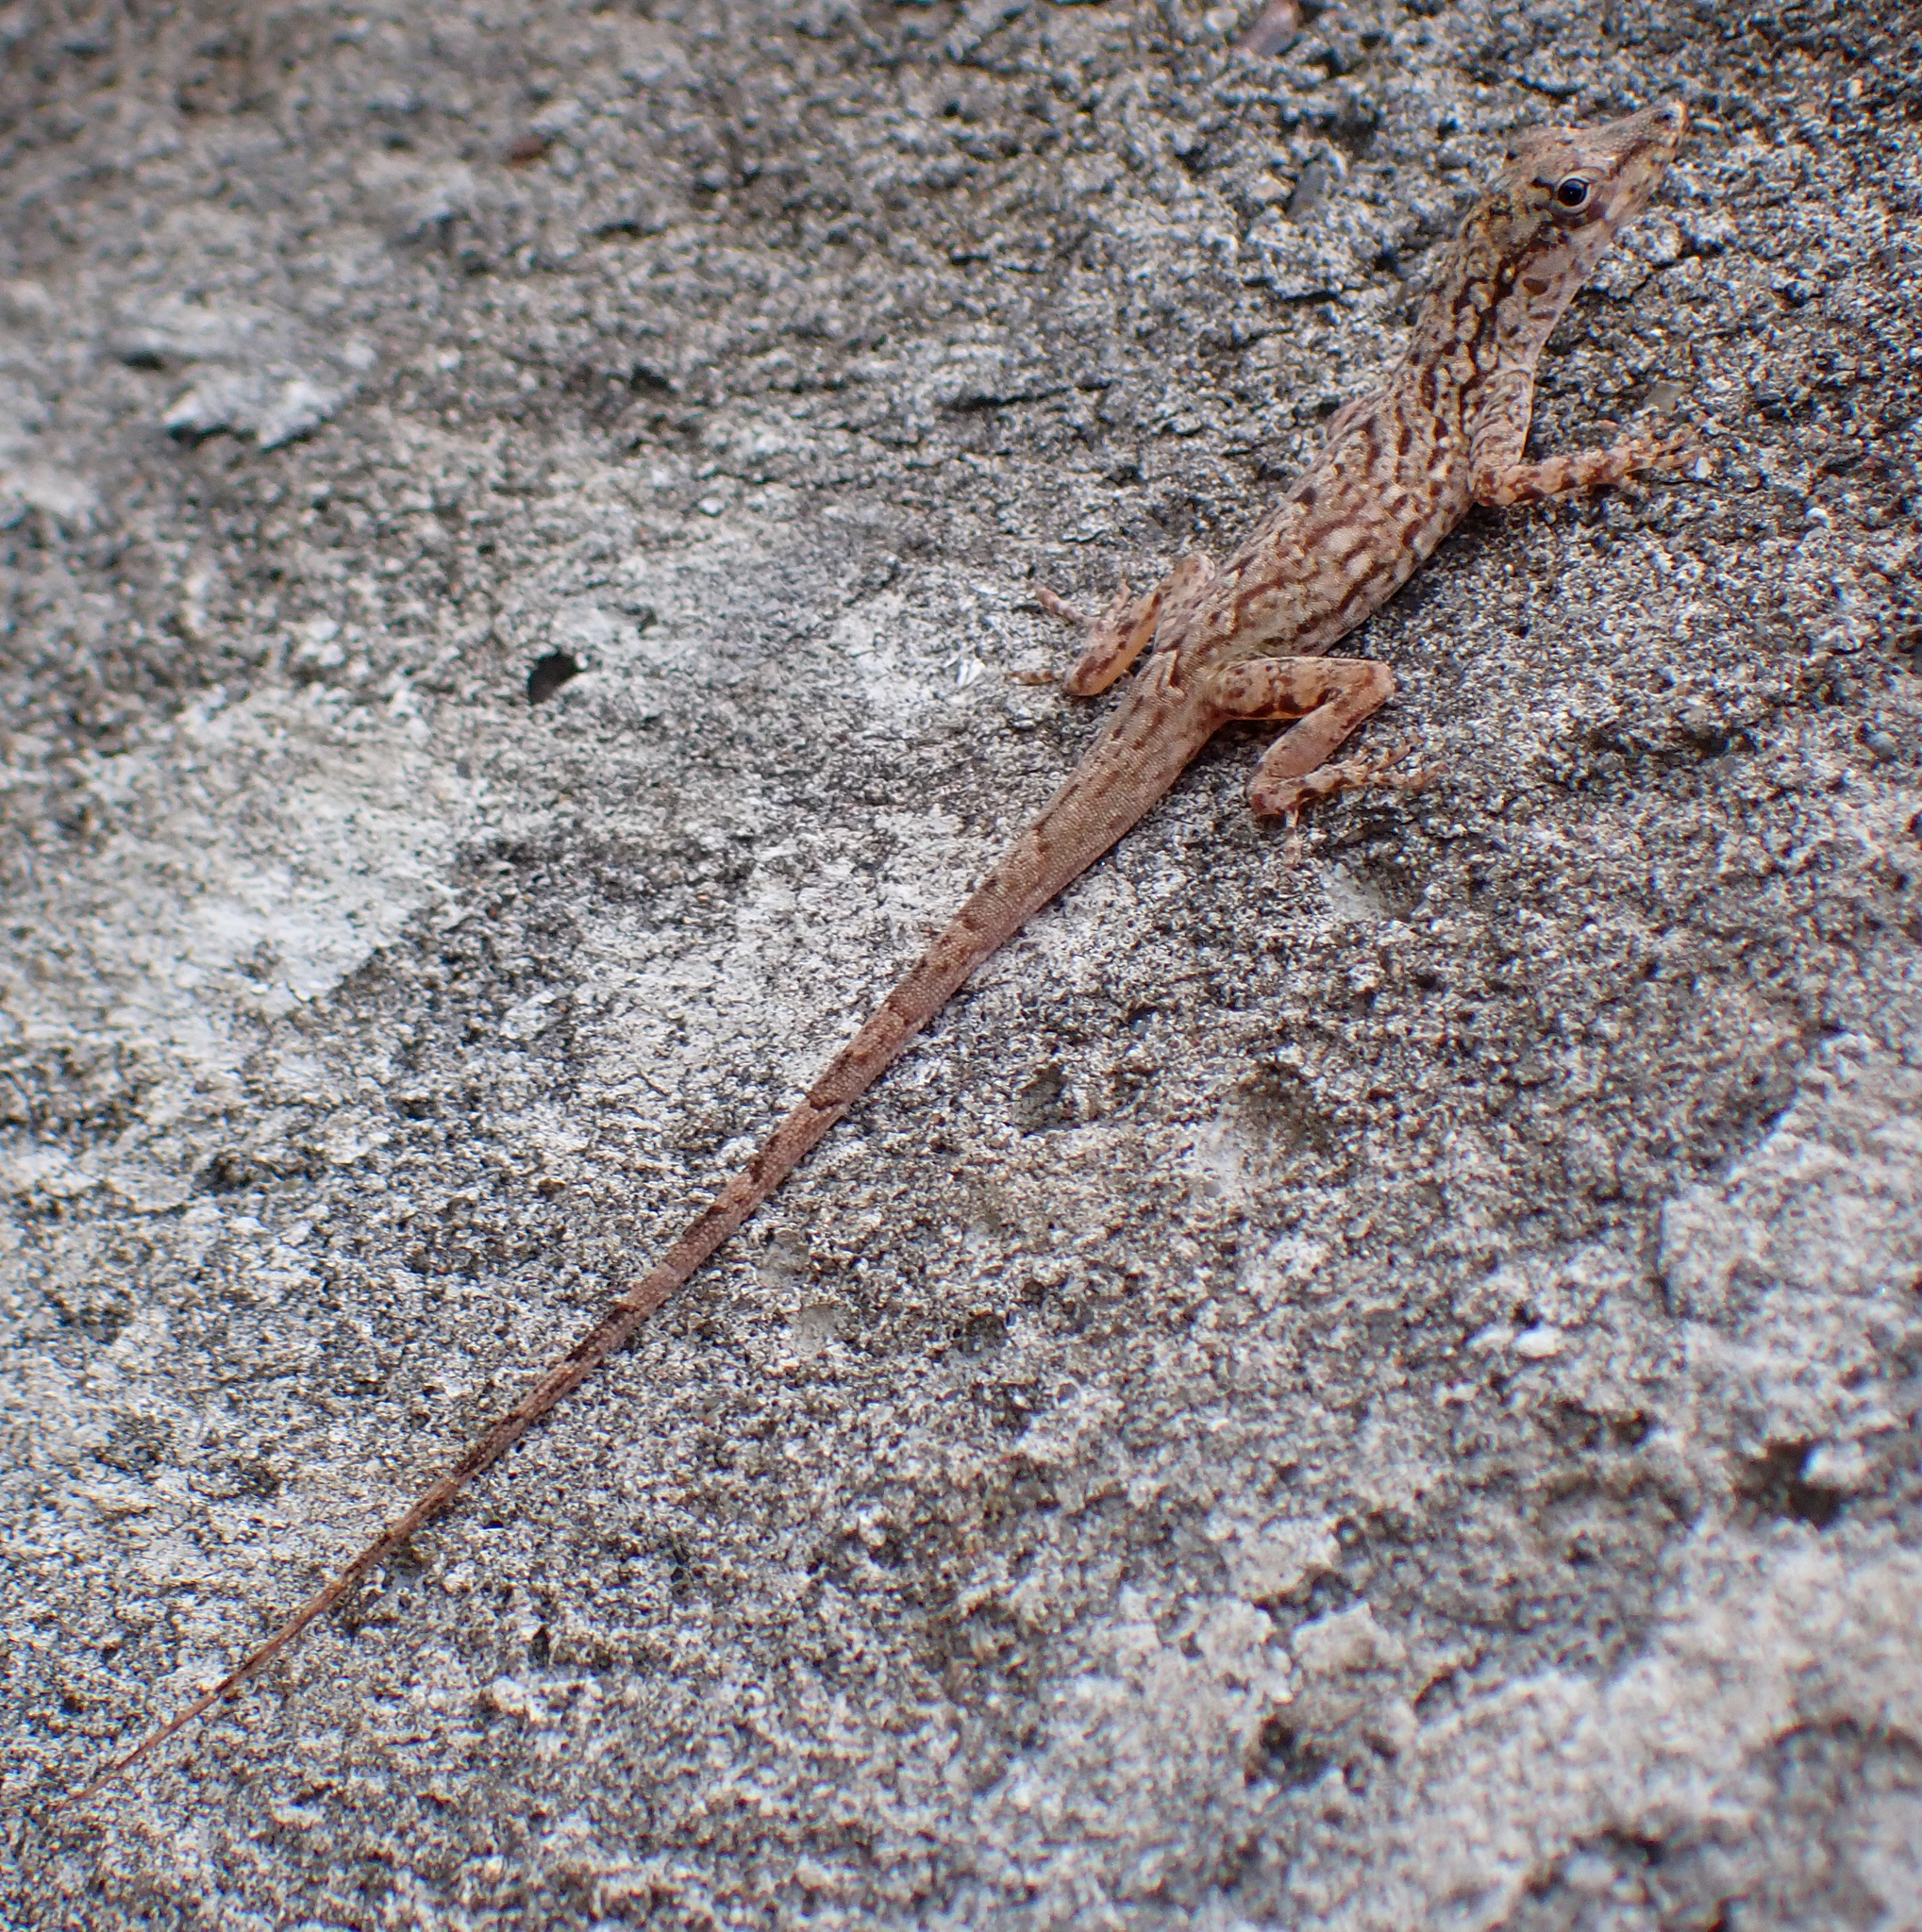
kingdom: Animalia
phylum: Chordata
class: Squamata
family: Dactyloidae
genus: Anolis
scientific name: Anolis aeneus
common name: Bronze anole
